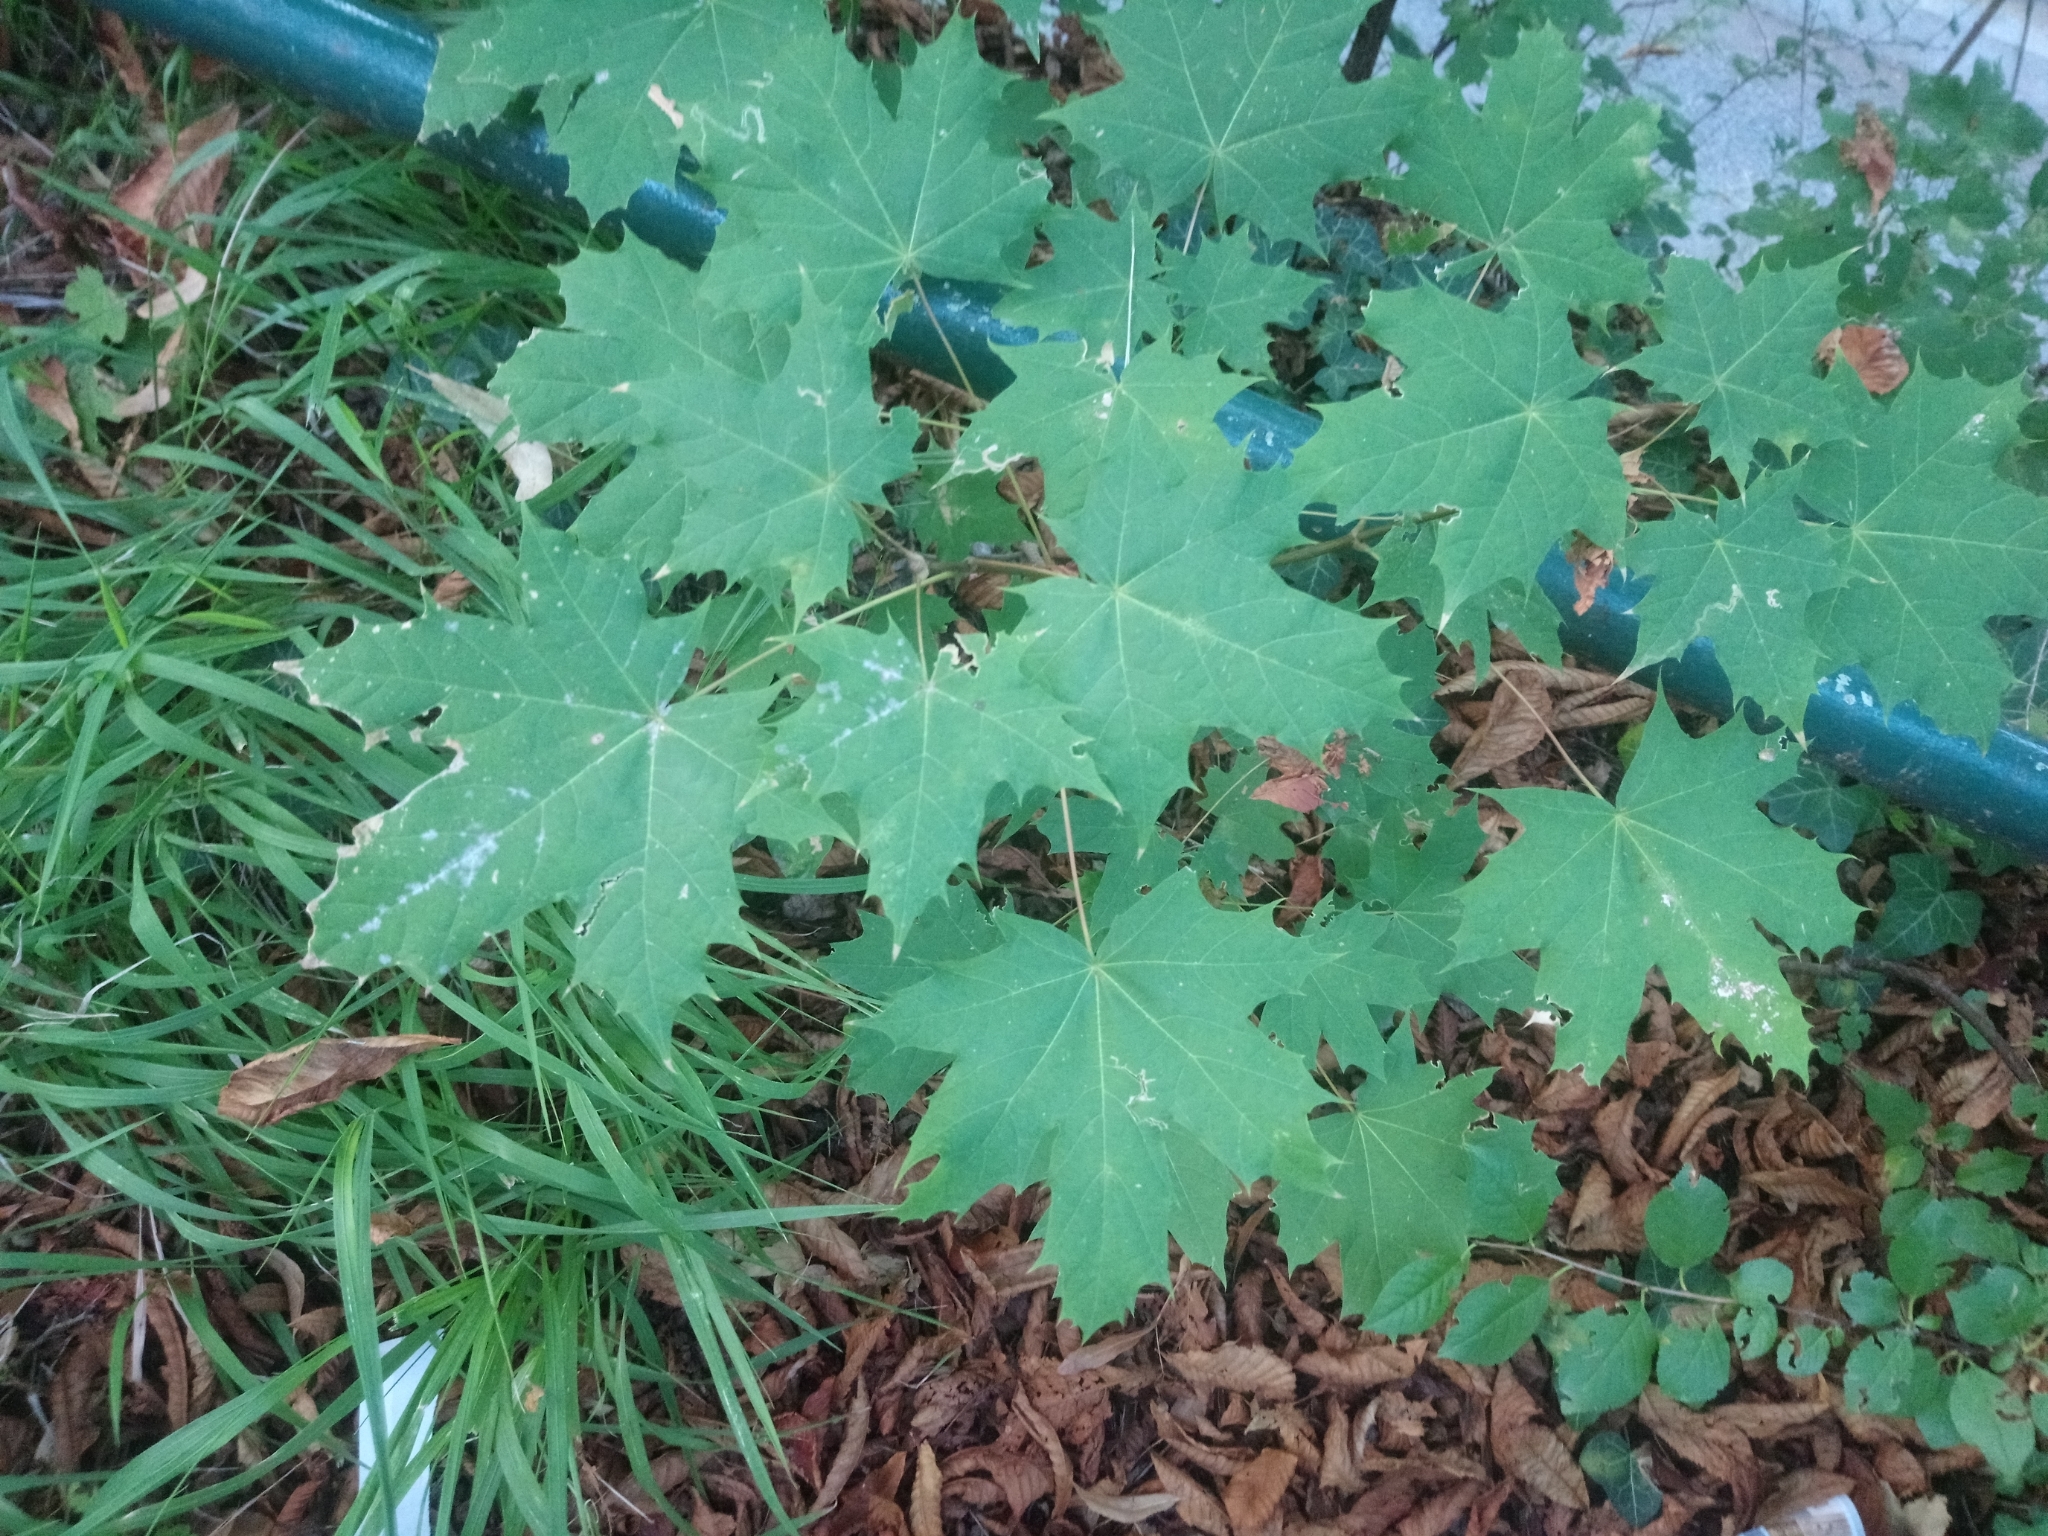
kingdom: Plantae
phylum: Tracheophyta
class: Magnoliopsida
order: Sapindales
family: Sapindaceae
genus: Acer
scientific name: Acer platanoides
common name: Norway maple
